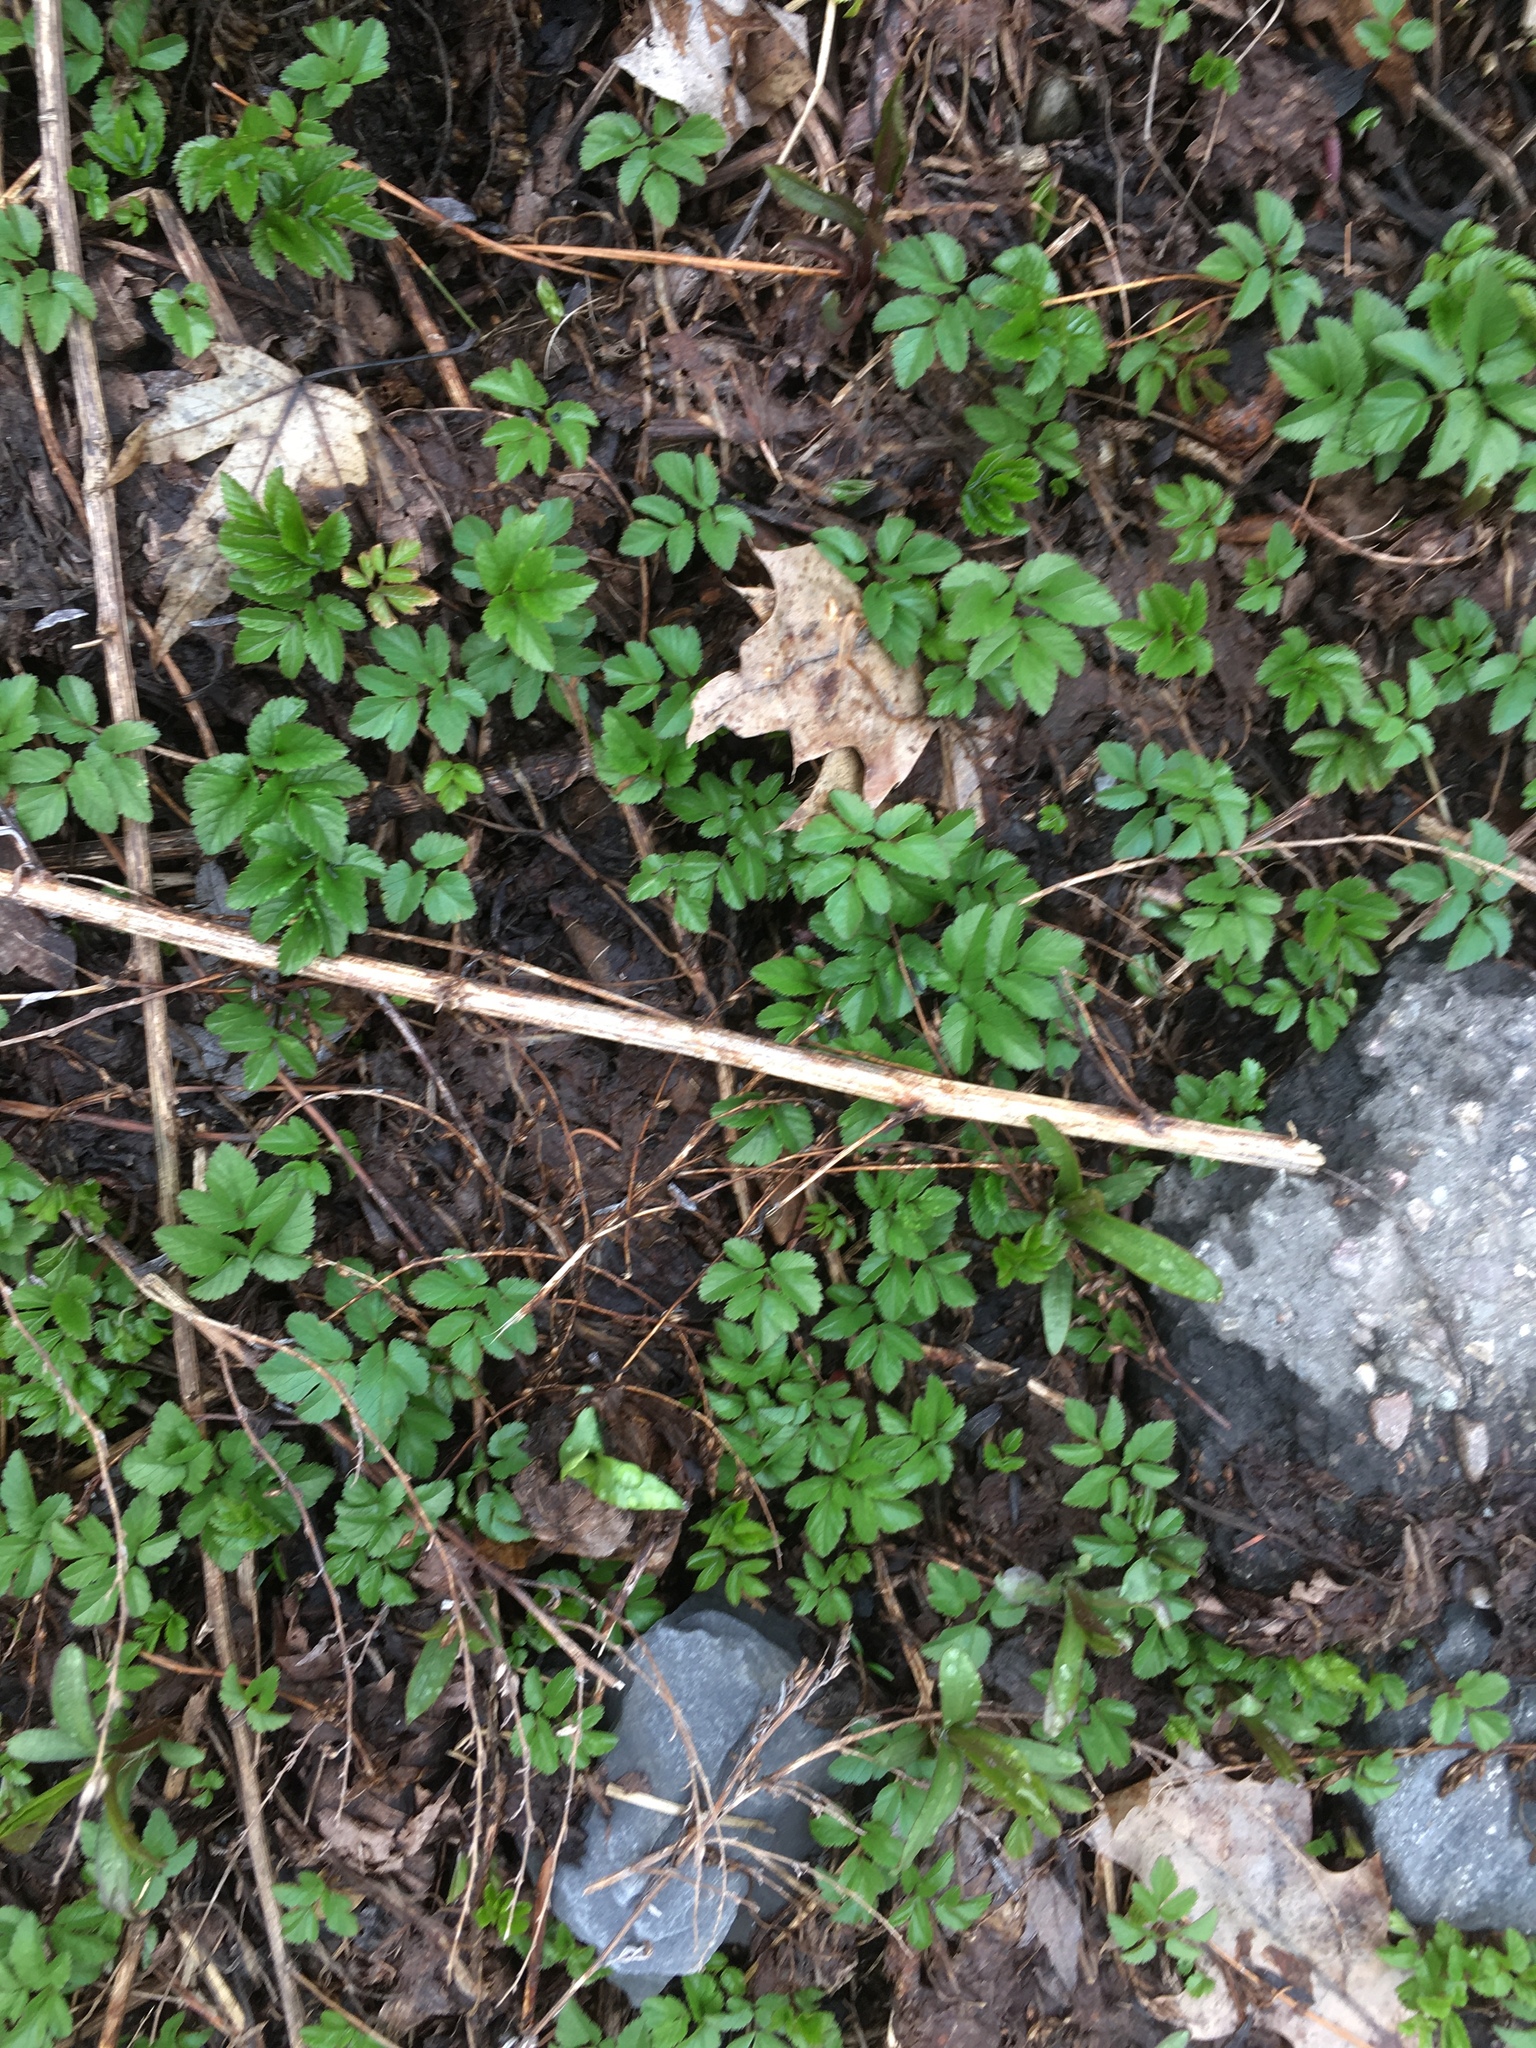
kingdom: Plantae
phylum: Tracheophyta
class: Magnoliopsida
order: Apiales
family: Apiaceae
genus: Aegopodium
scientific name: Aegopodium podagraria
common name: Ground-elder
